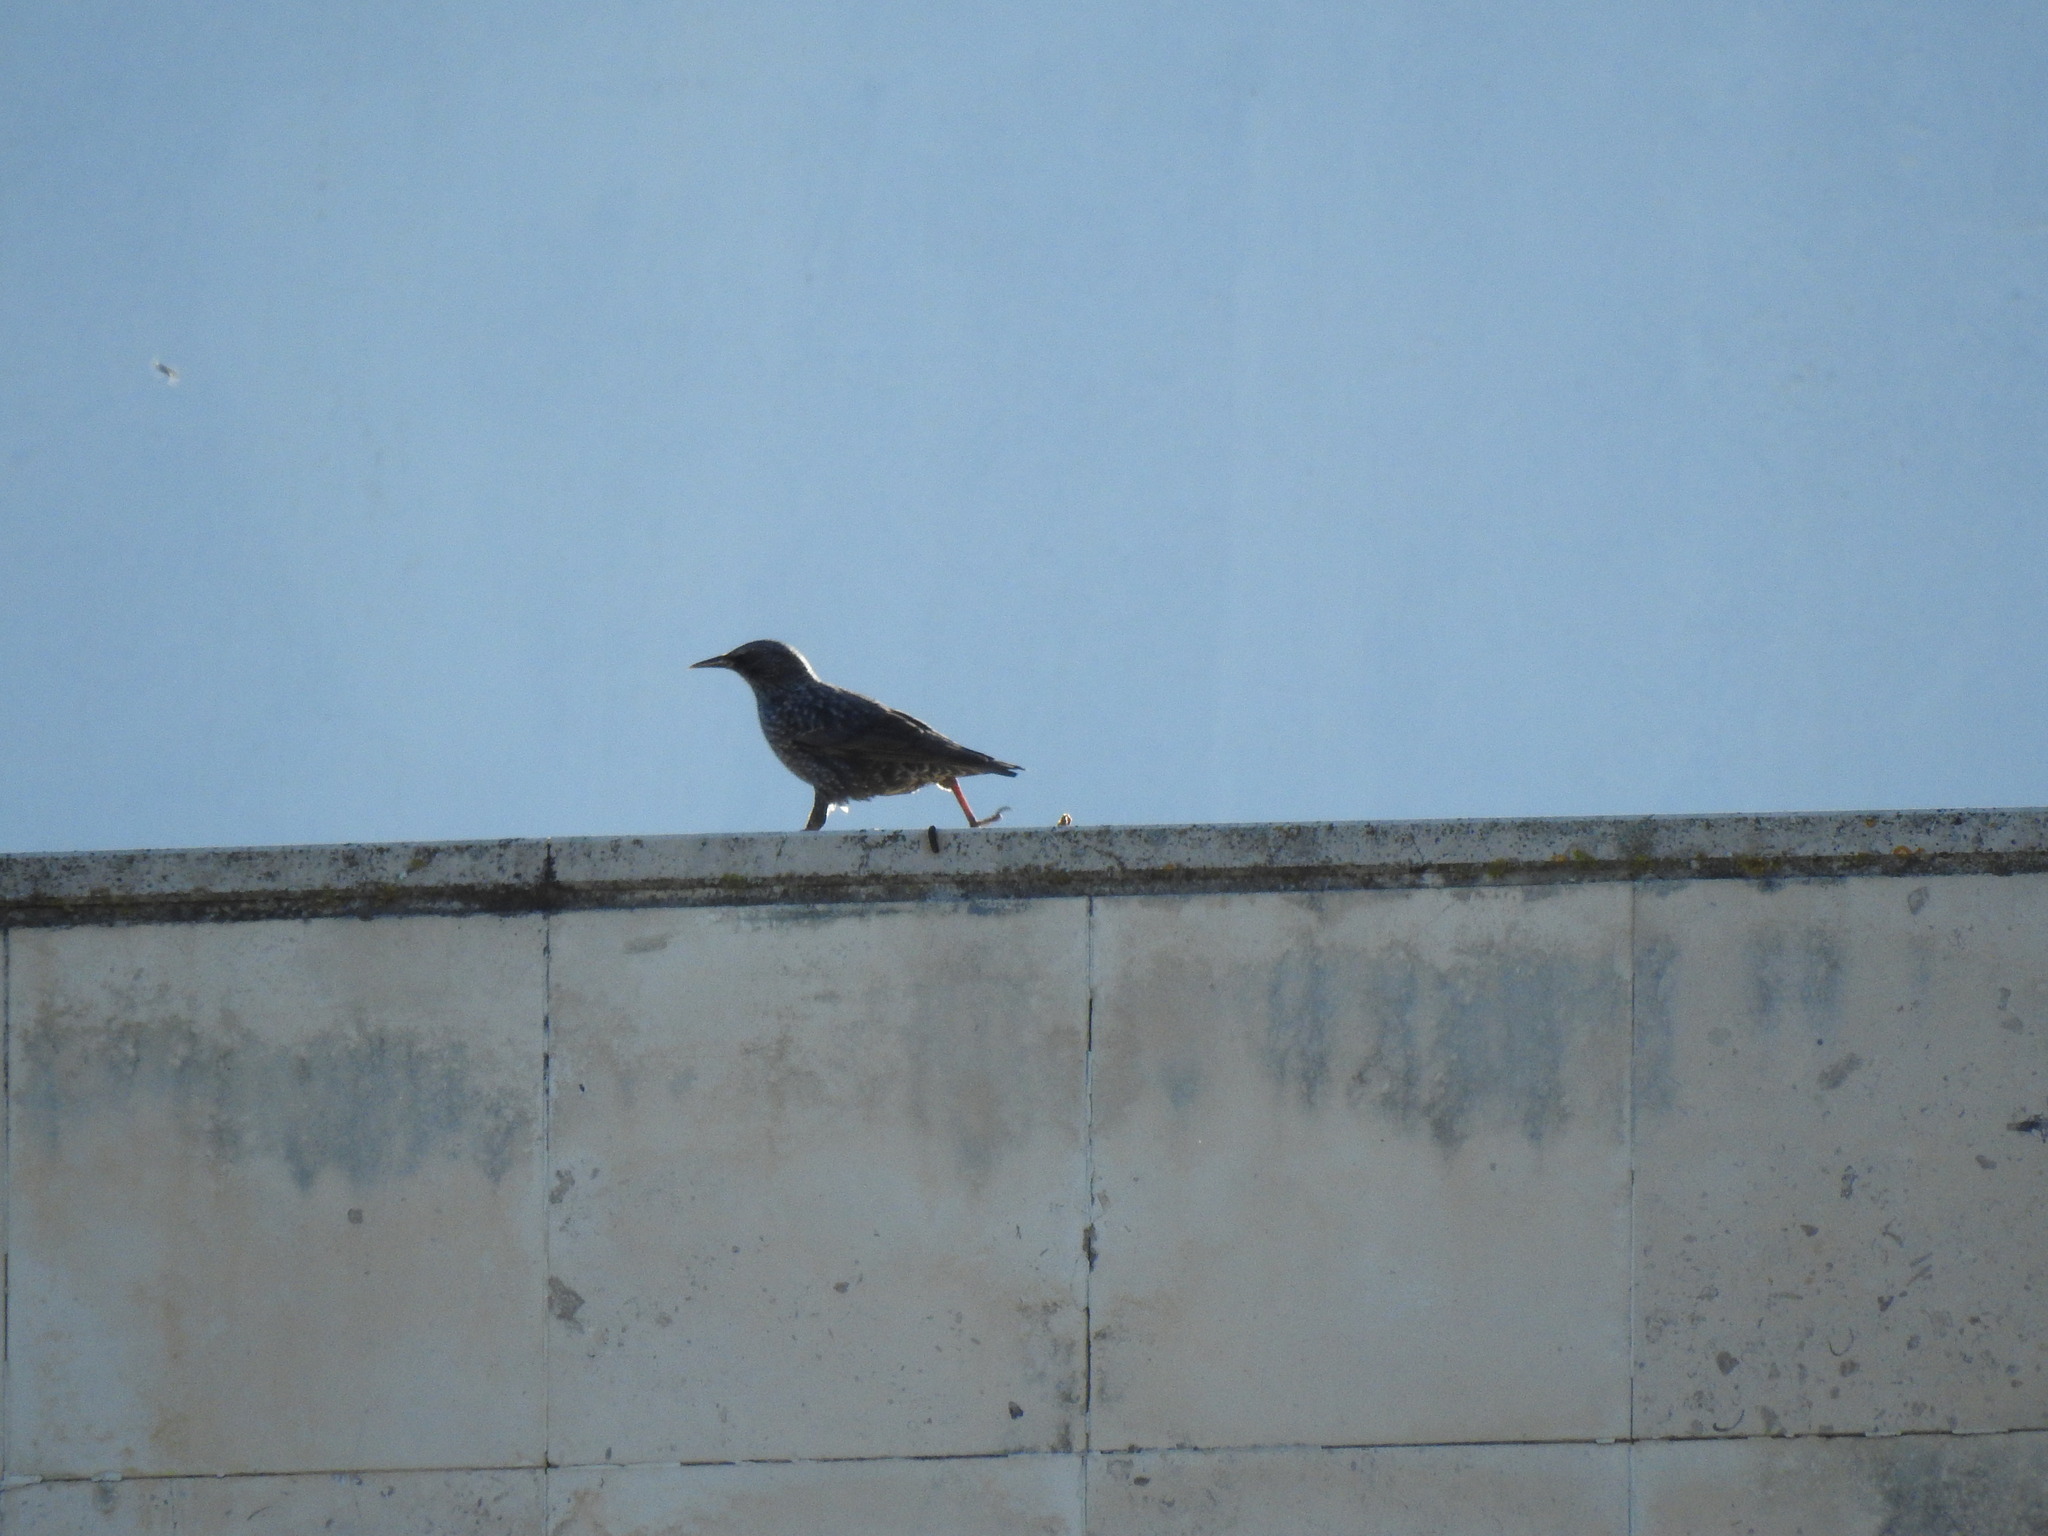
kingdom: Animalia
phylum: Chordata
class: Aves
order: Passeriformes
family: Sturnidae
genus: Sturnus
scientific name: Sturnus vulgaris
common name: Common starling
